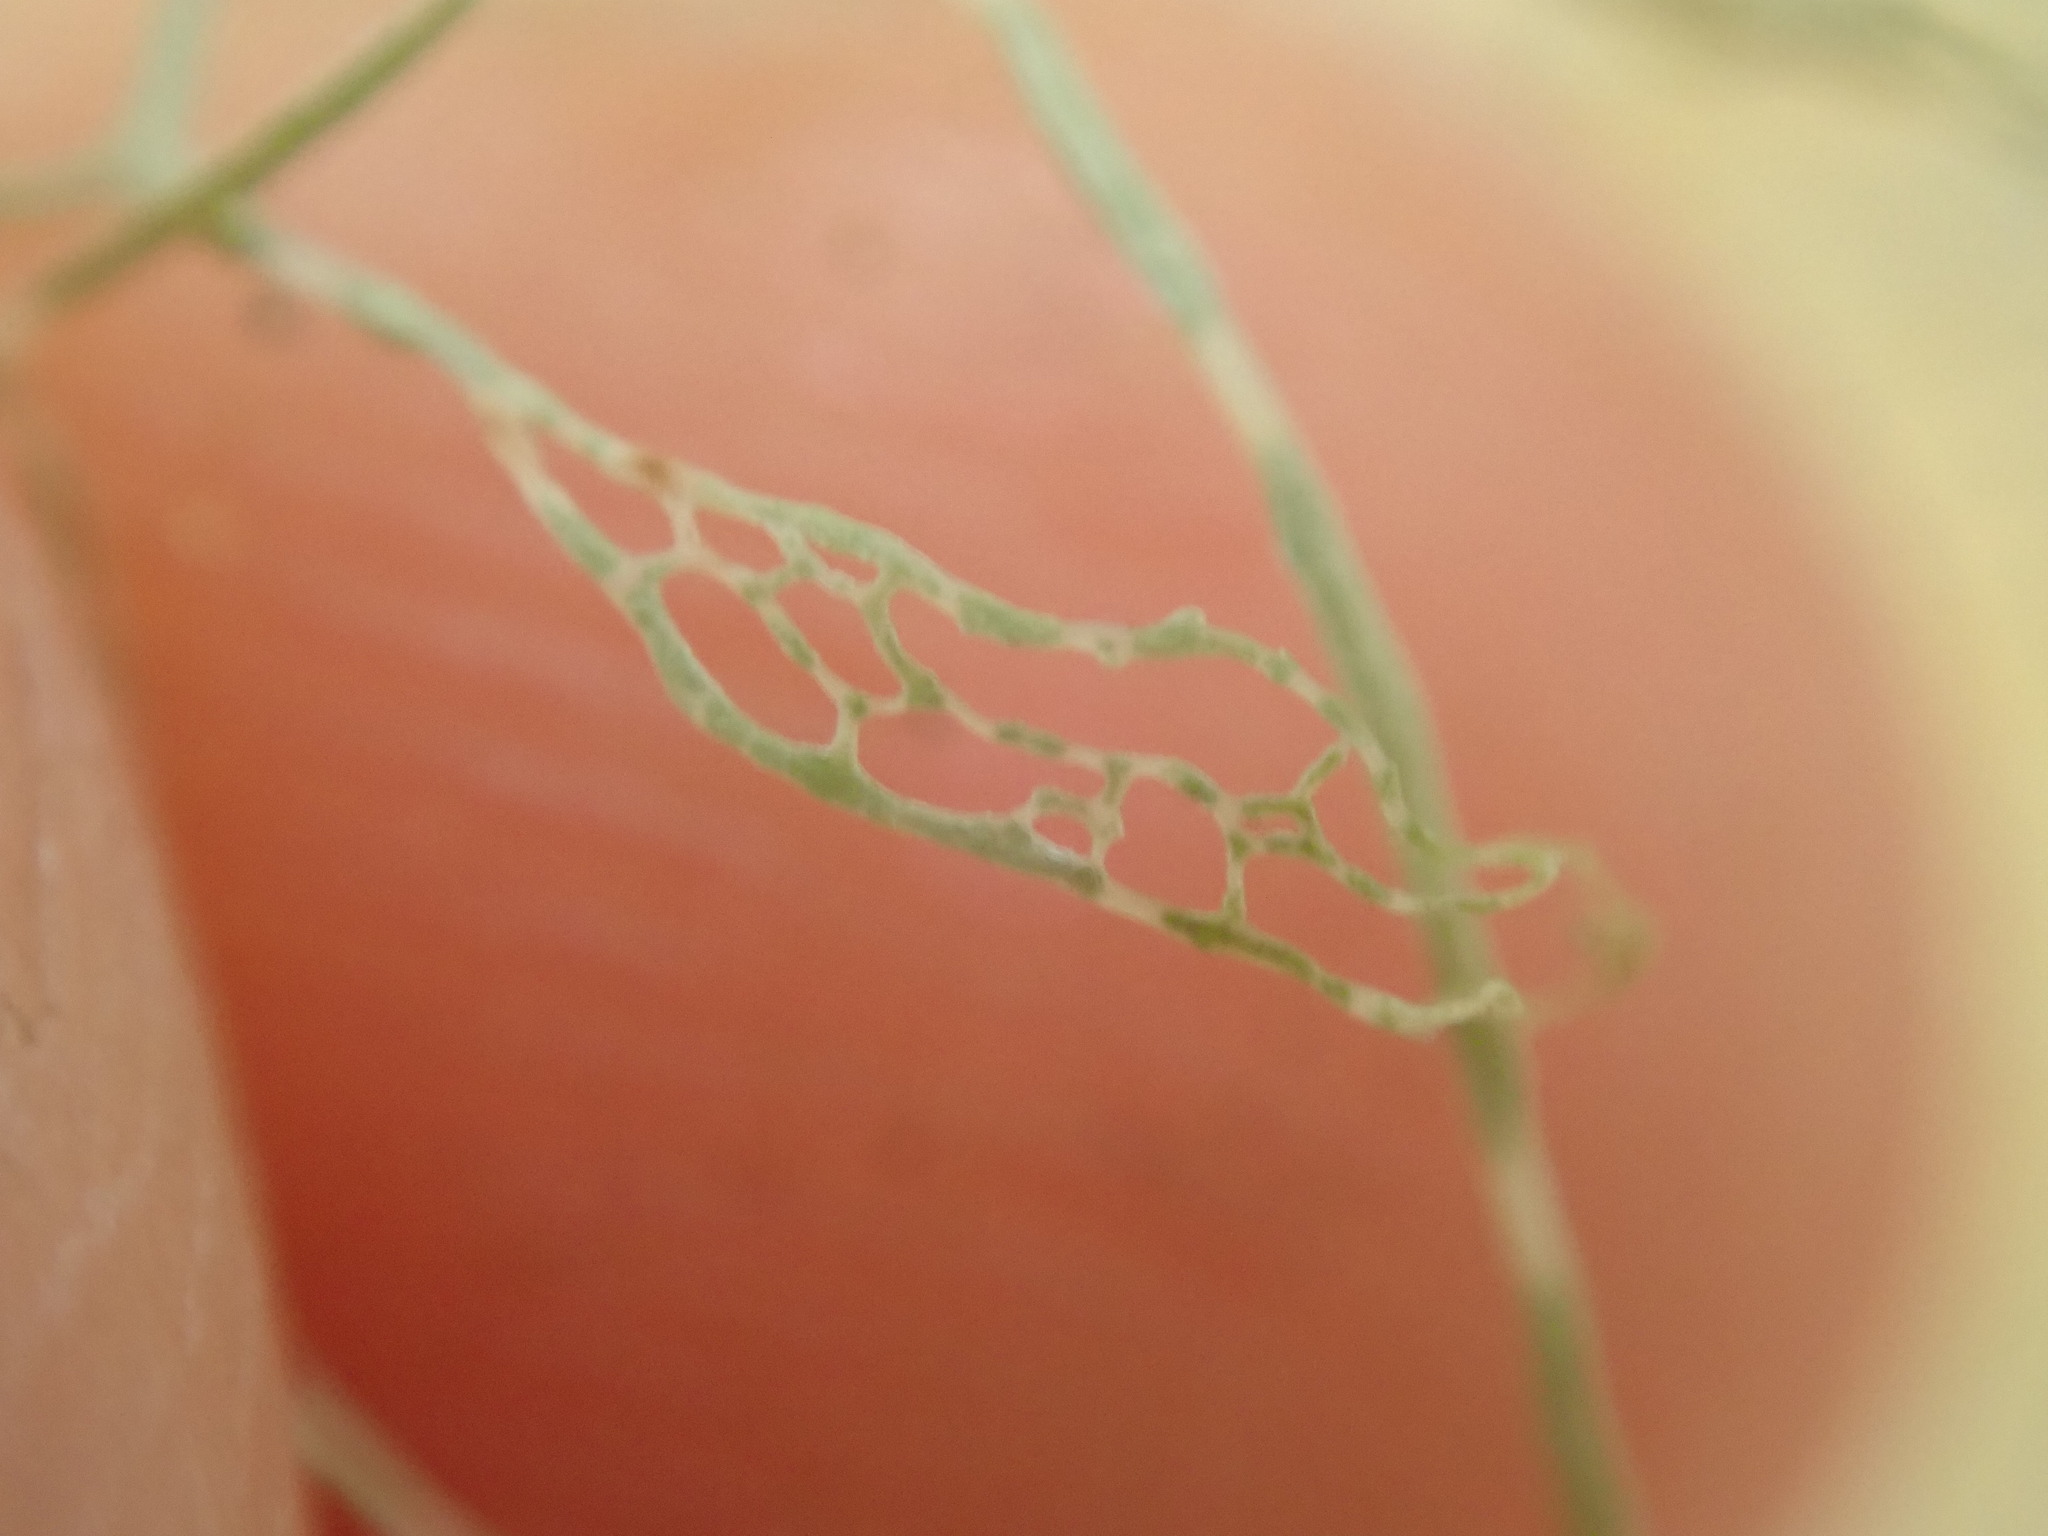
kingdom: Fungi
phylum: Ascomycota
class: Lecanoromycetes
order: Lecanorales
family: Ramalinaceae
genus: Ramalina
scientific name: Ramalina menziesii
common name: Lace lichen
